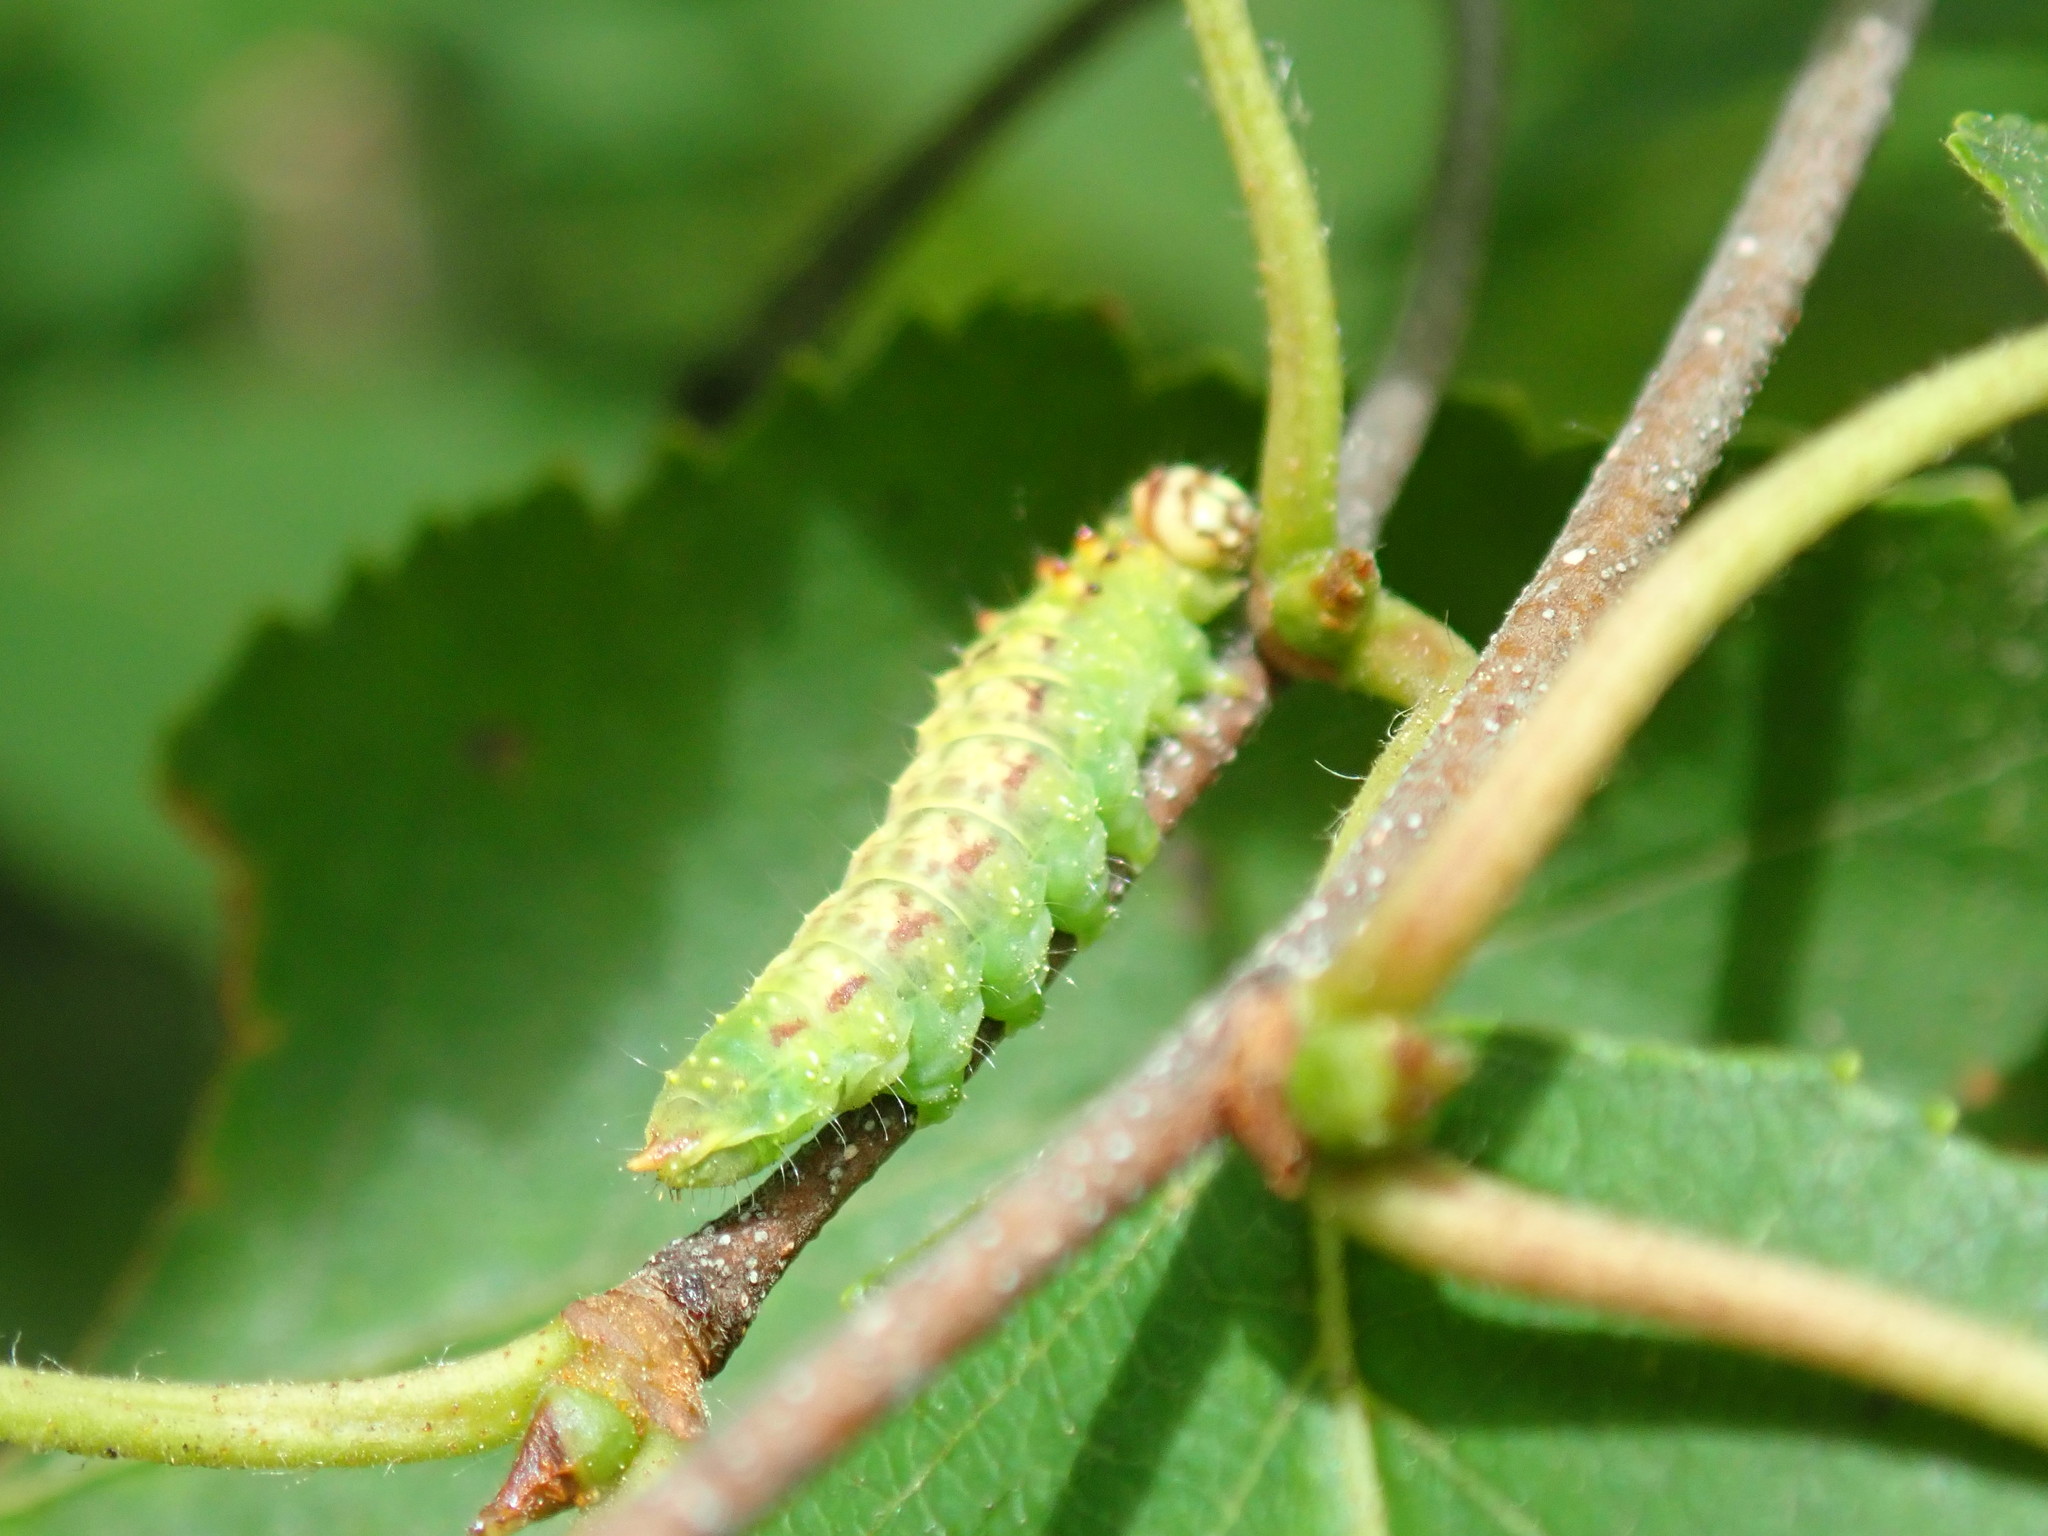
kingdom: Animalia
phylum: Arthropoda
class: Insecta
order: Lepidoptera
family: Drepanidae
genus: Drepana
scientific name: Drepana arcuata
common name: Arched hooktip moth
